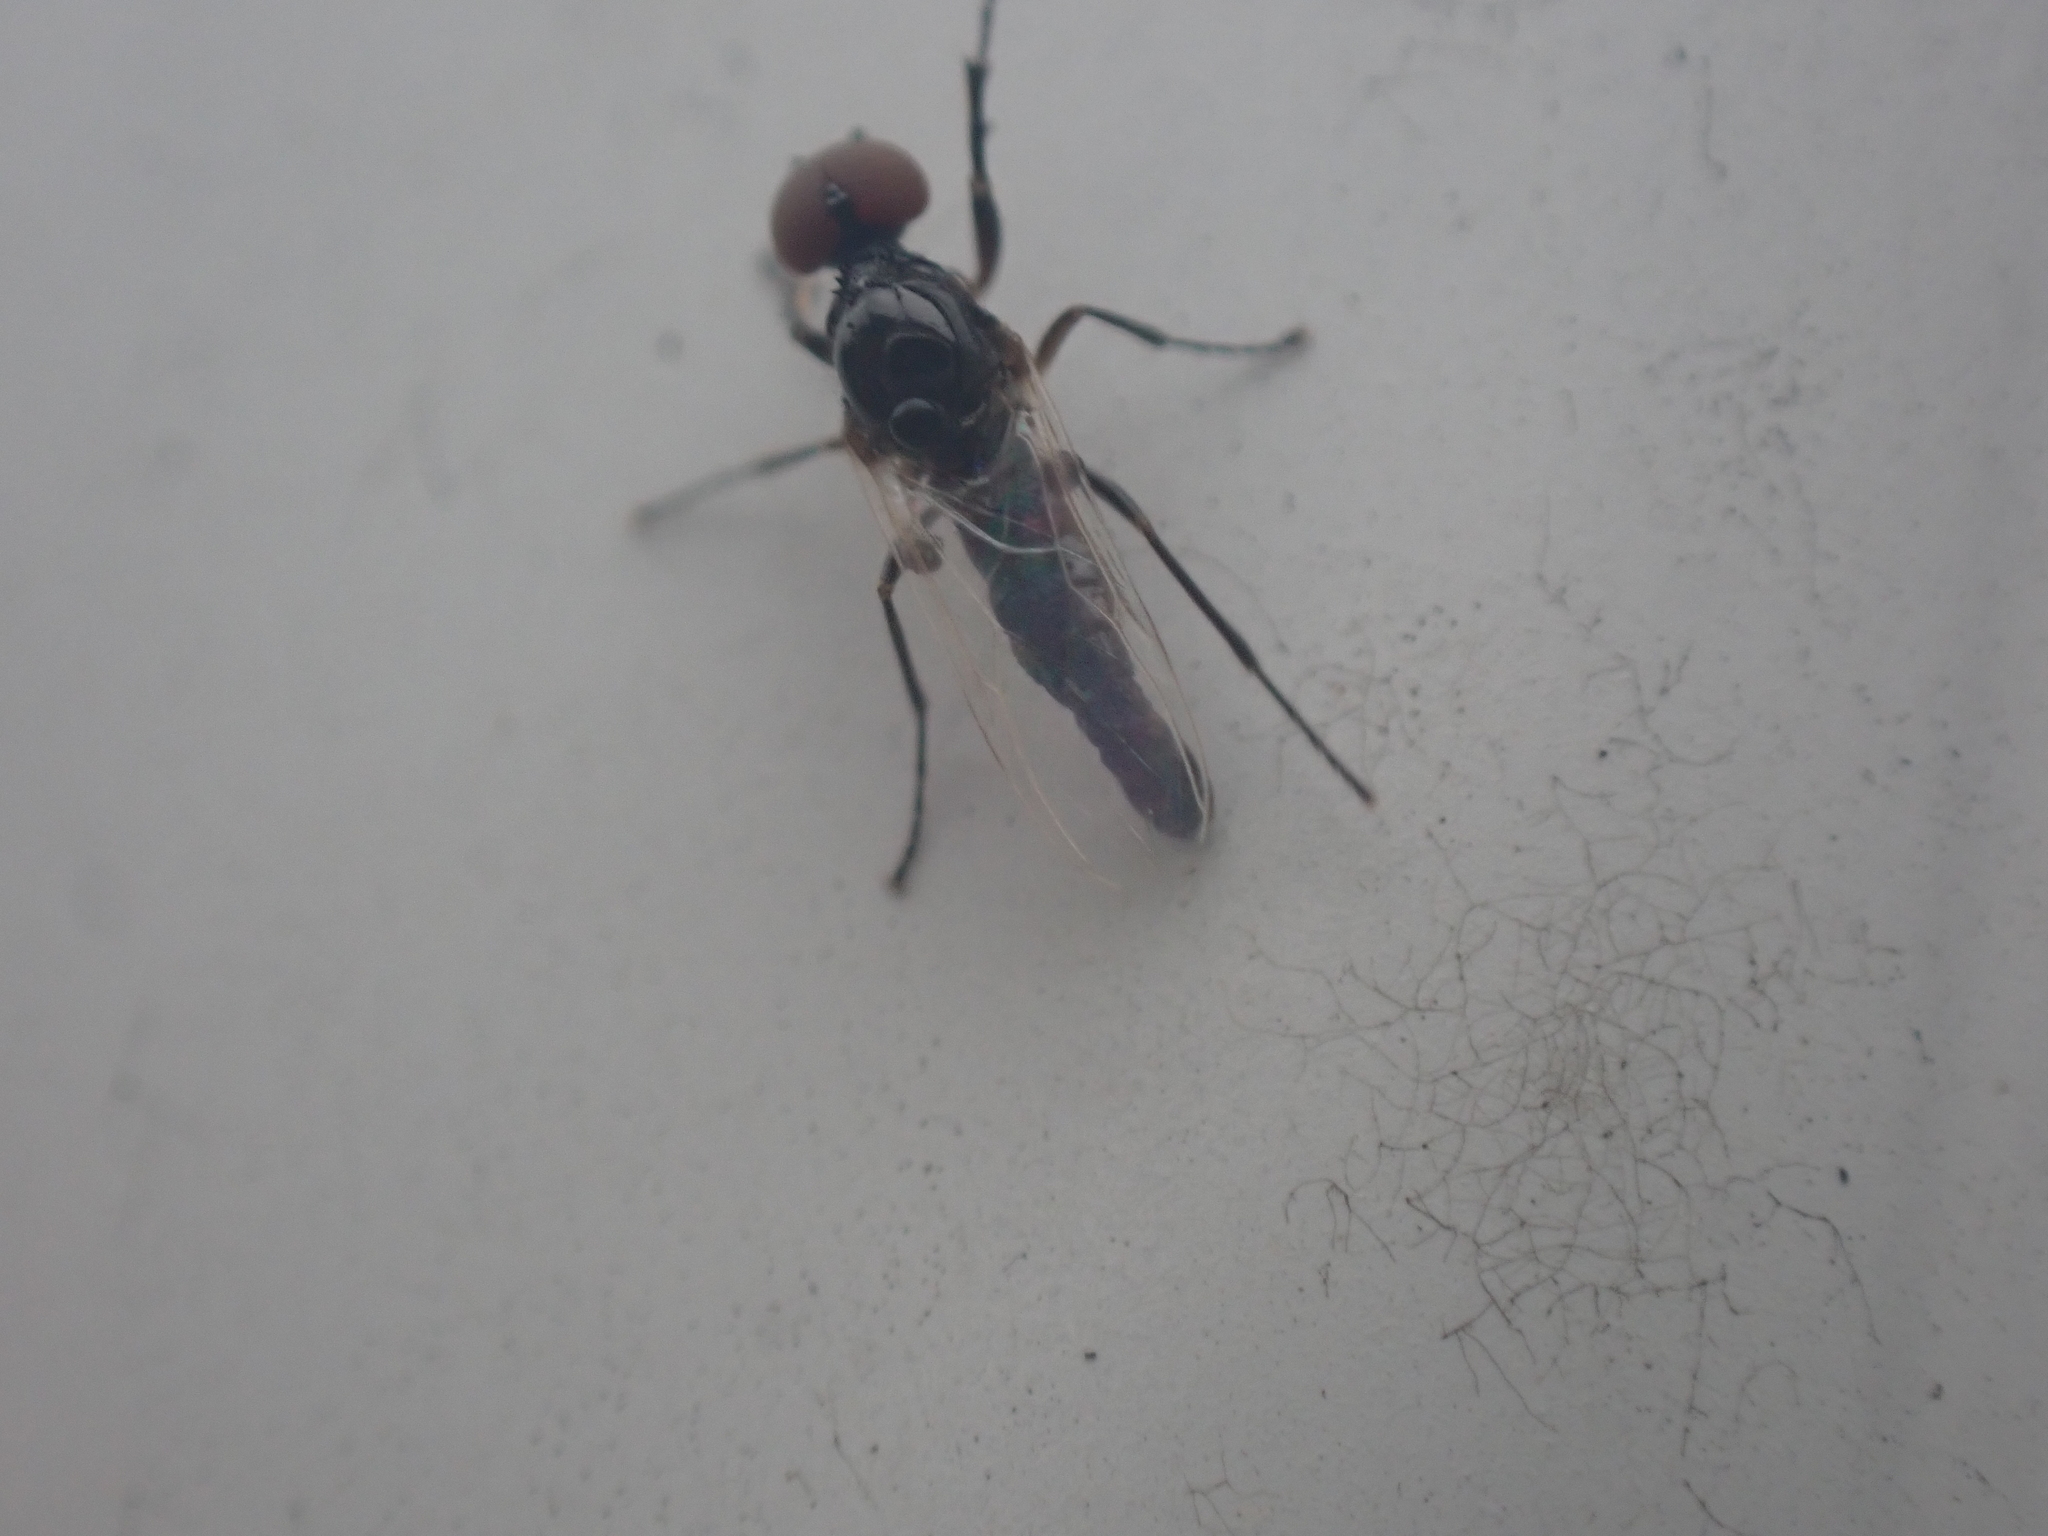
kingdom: Animalia
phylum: Arthropoda
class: Insecta
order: Diptera
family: Bibionidae
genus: Dilophus
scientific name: Dilophus
